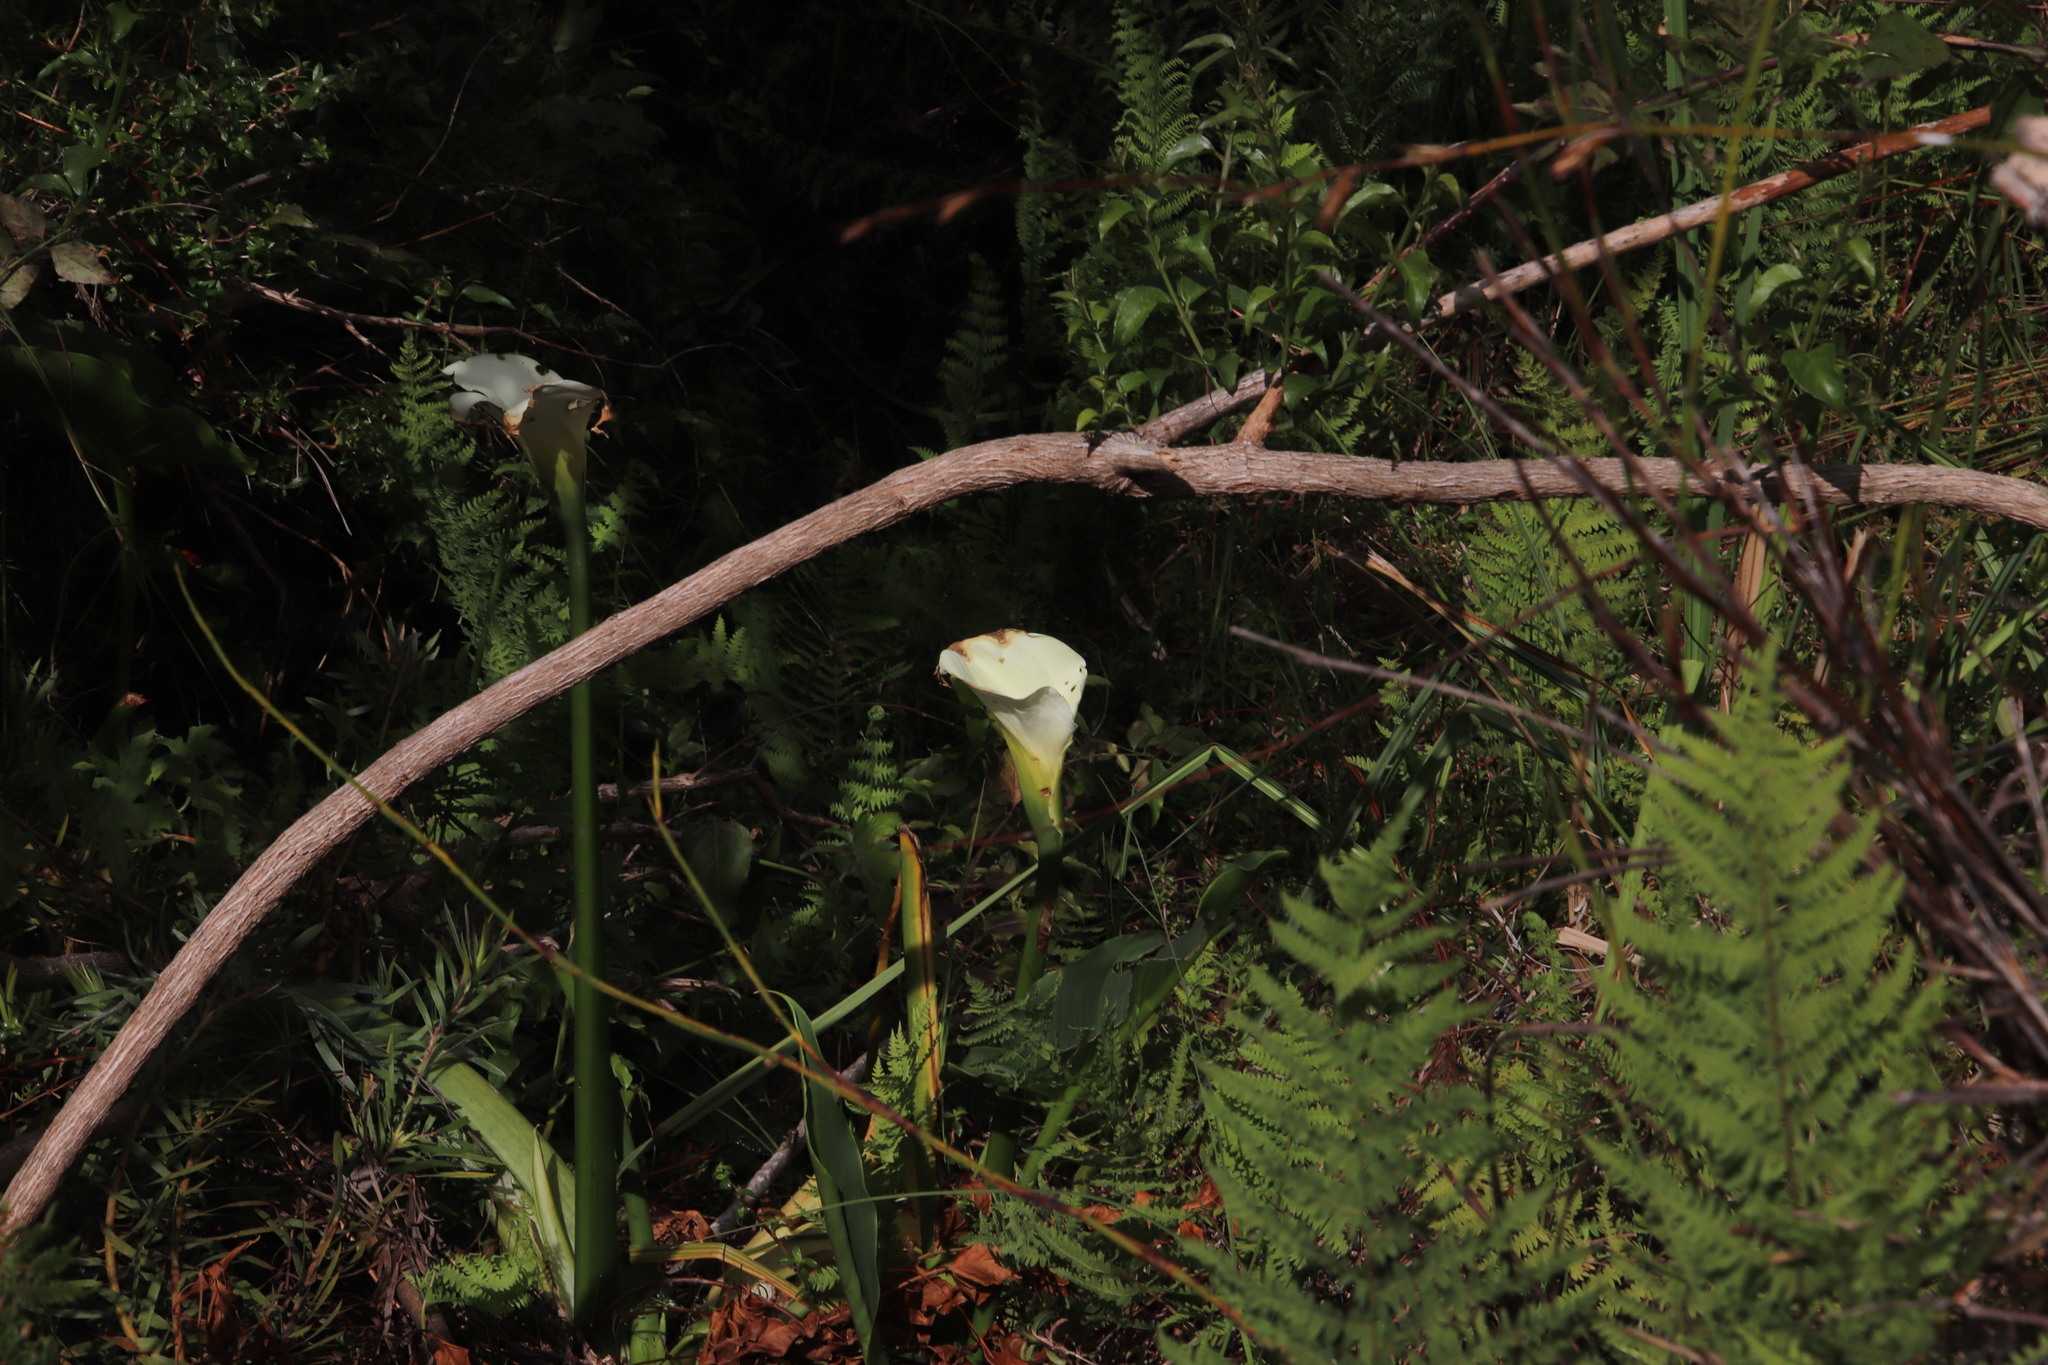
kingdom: Plantae
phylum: Tracheophyta
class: Liliopsida
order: Alismatales
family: Araceae
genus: Zantedeschia
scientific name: Zantedeschia aethiopica
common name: Altar-lily
